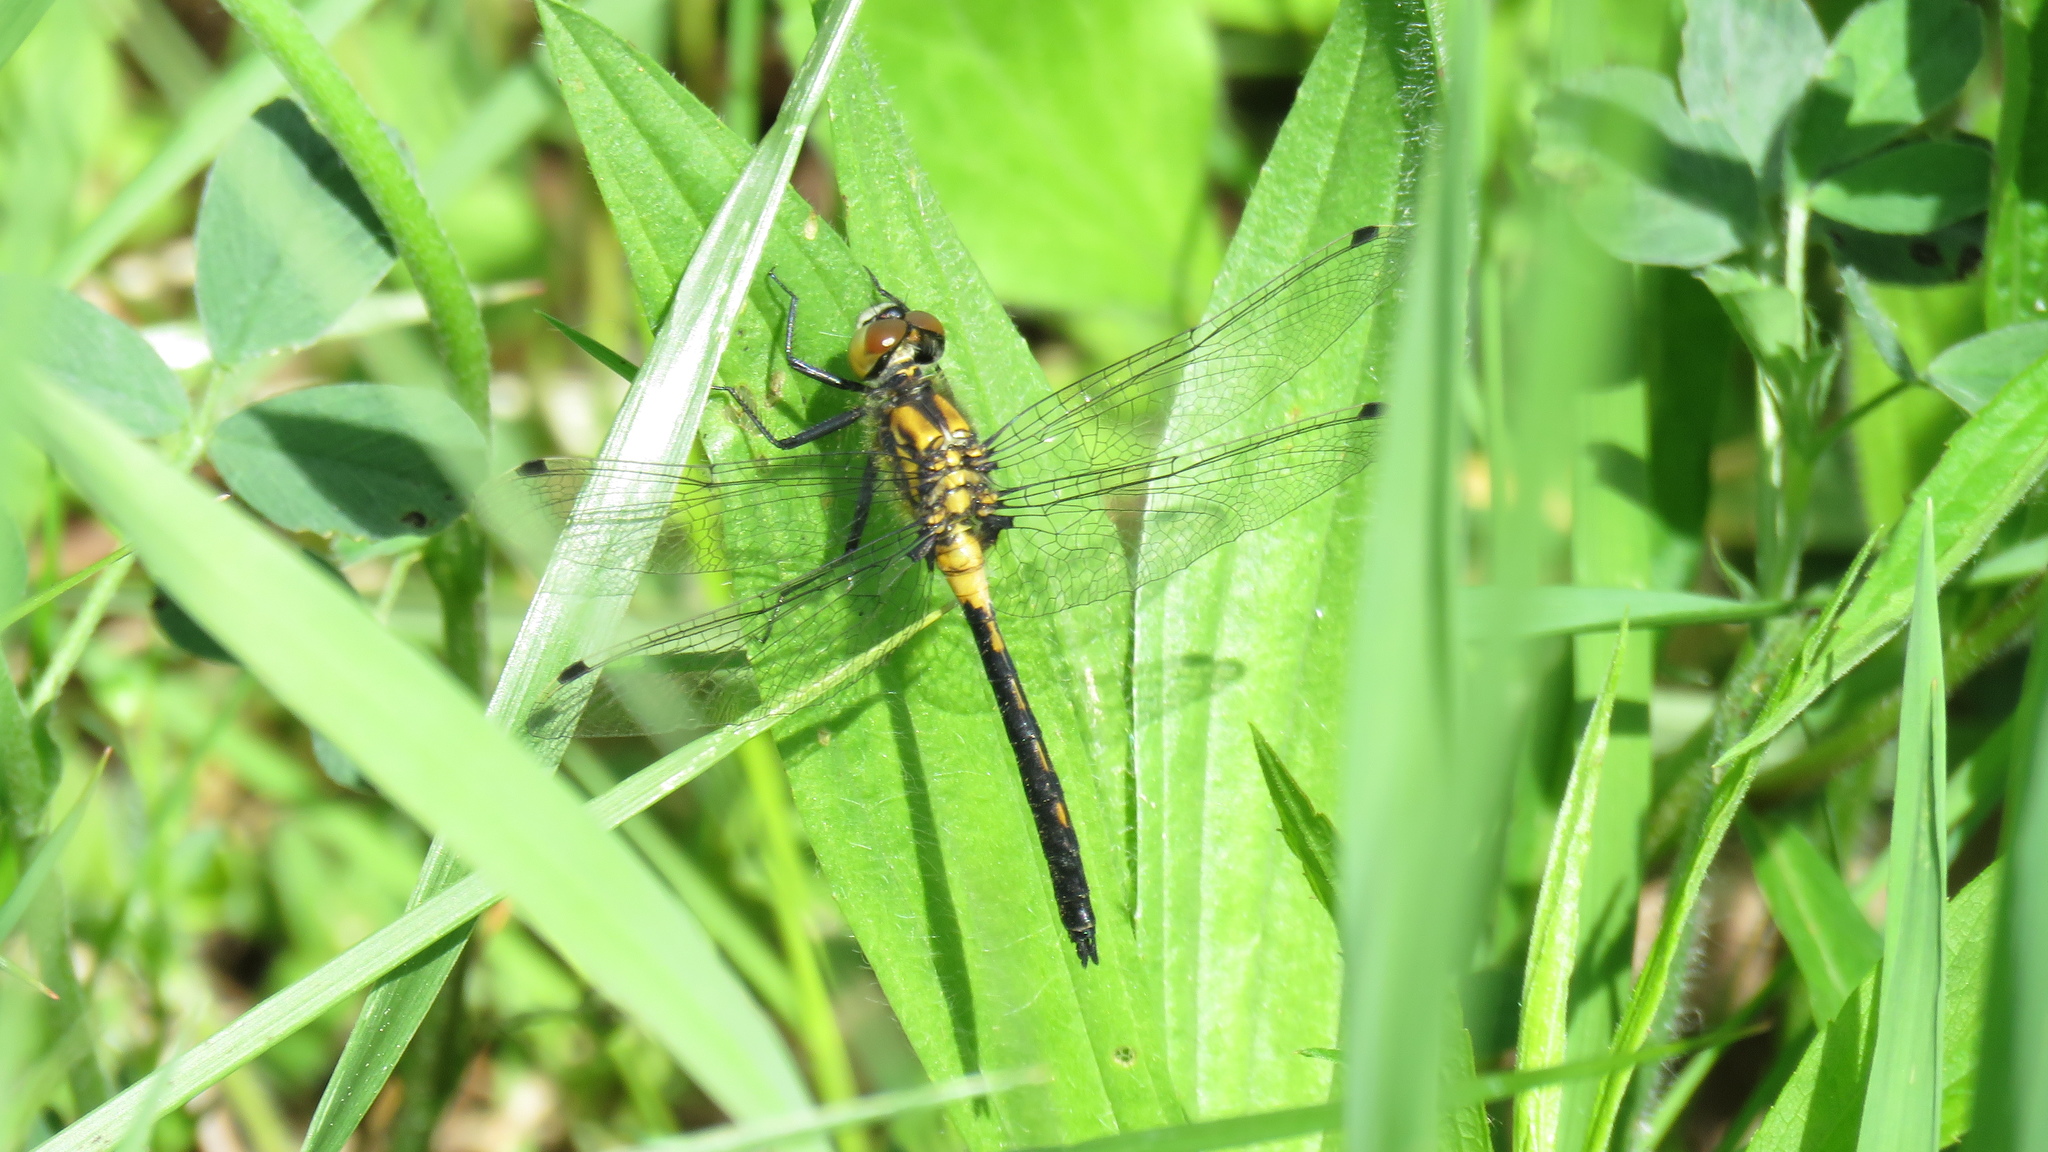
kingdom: Animalia
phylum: Arthropoda
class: Insecta
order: Odonata
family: Libellulidae
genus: Leucorrhinia
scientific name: Leucorrhinia proxima
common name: Belted whiteface
